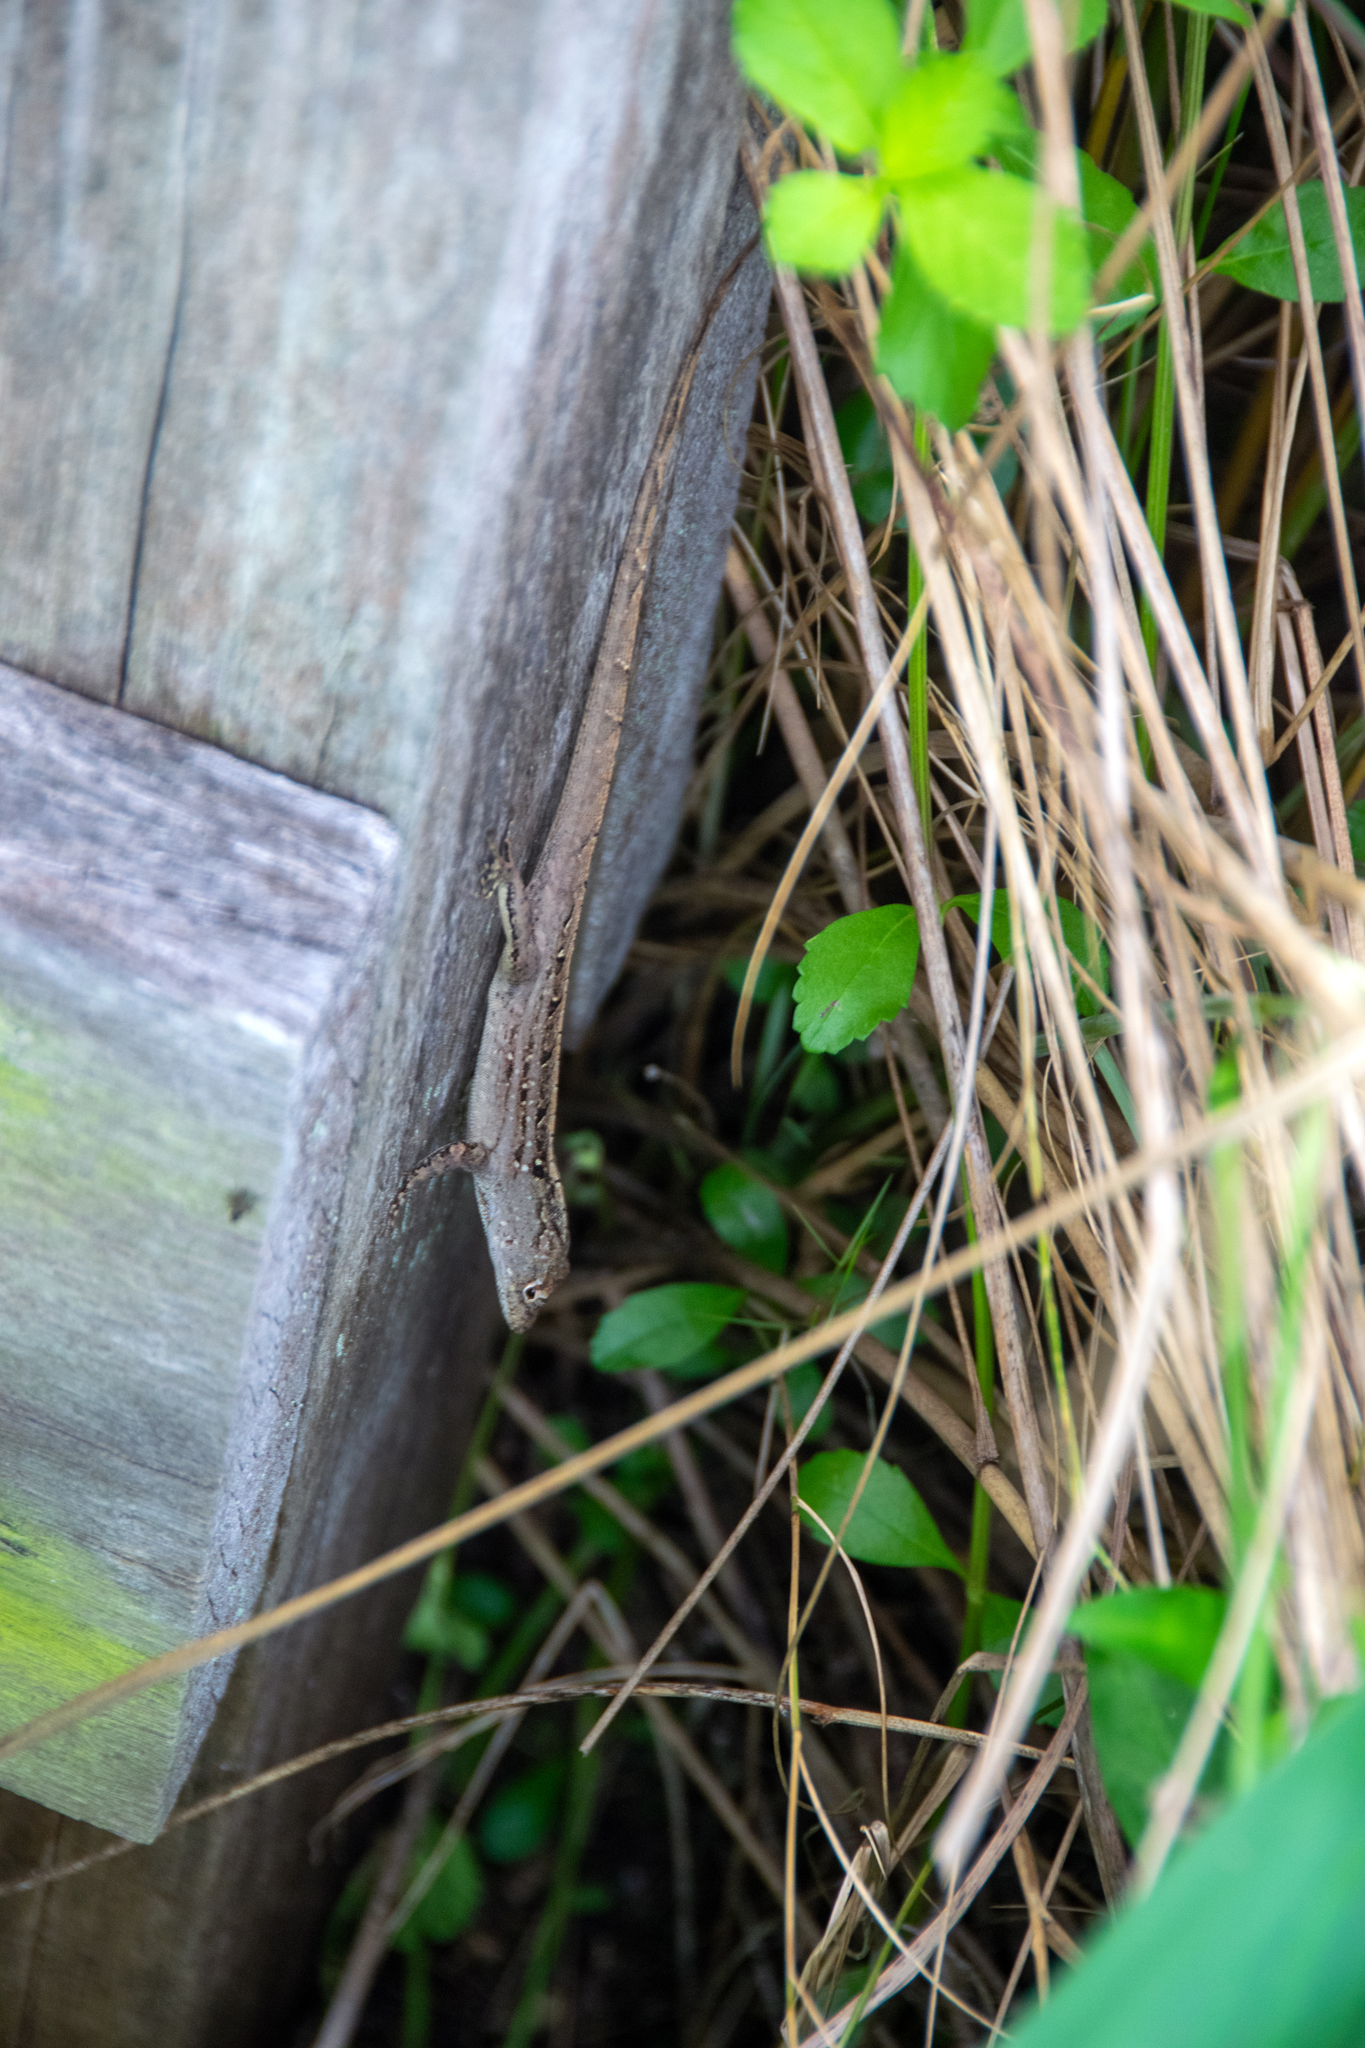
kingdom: Animalia
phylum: Chordata
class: Squamata
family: Dactyloidae
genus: Anolis
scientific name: Anolis sagrei
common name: Brown anole
